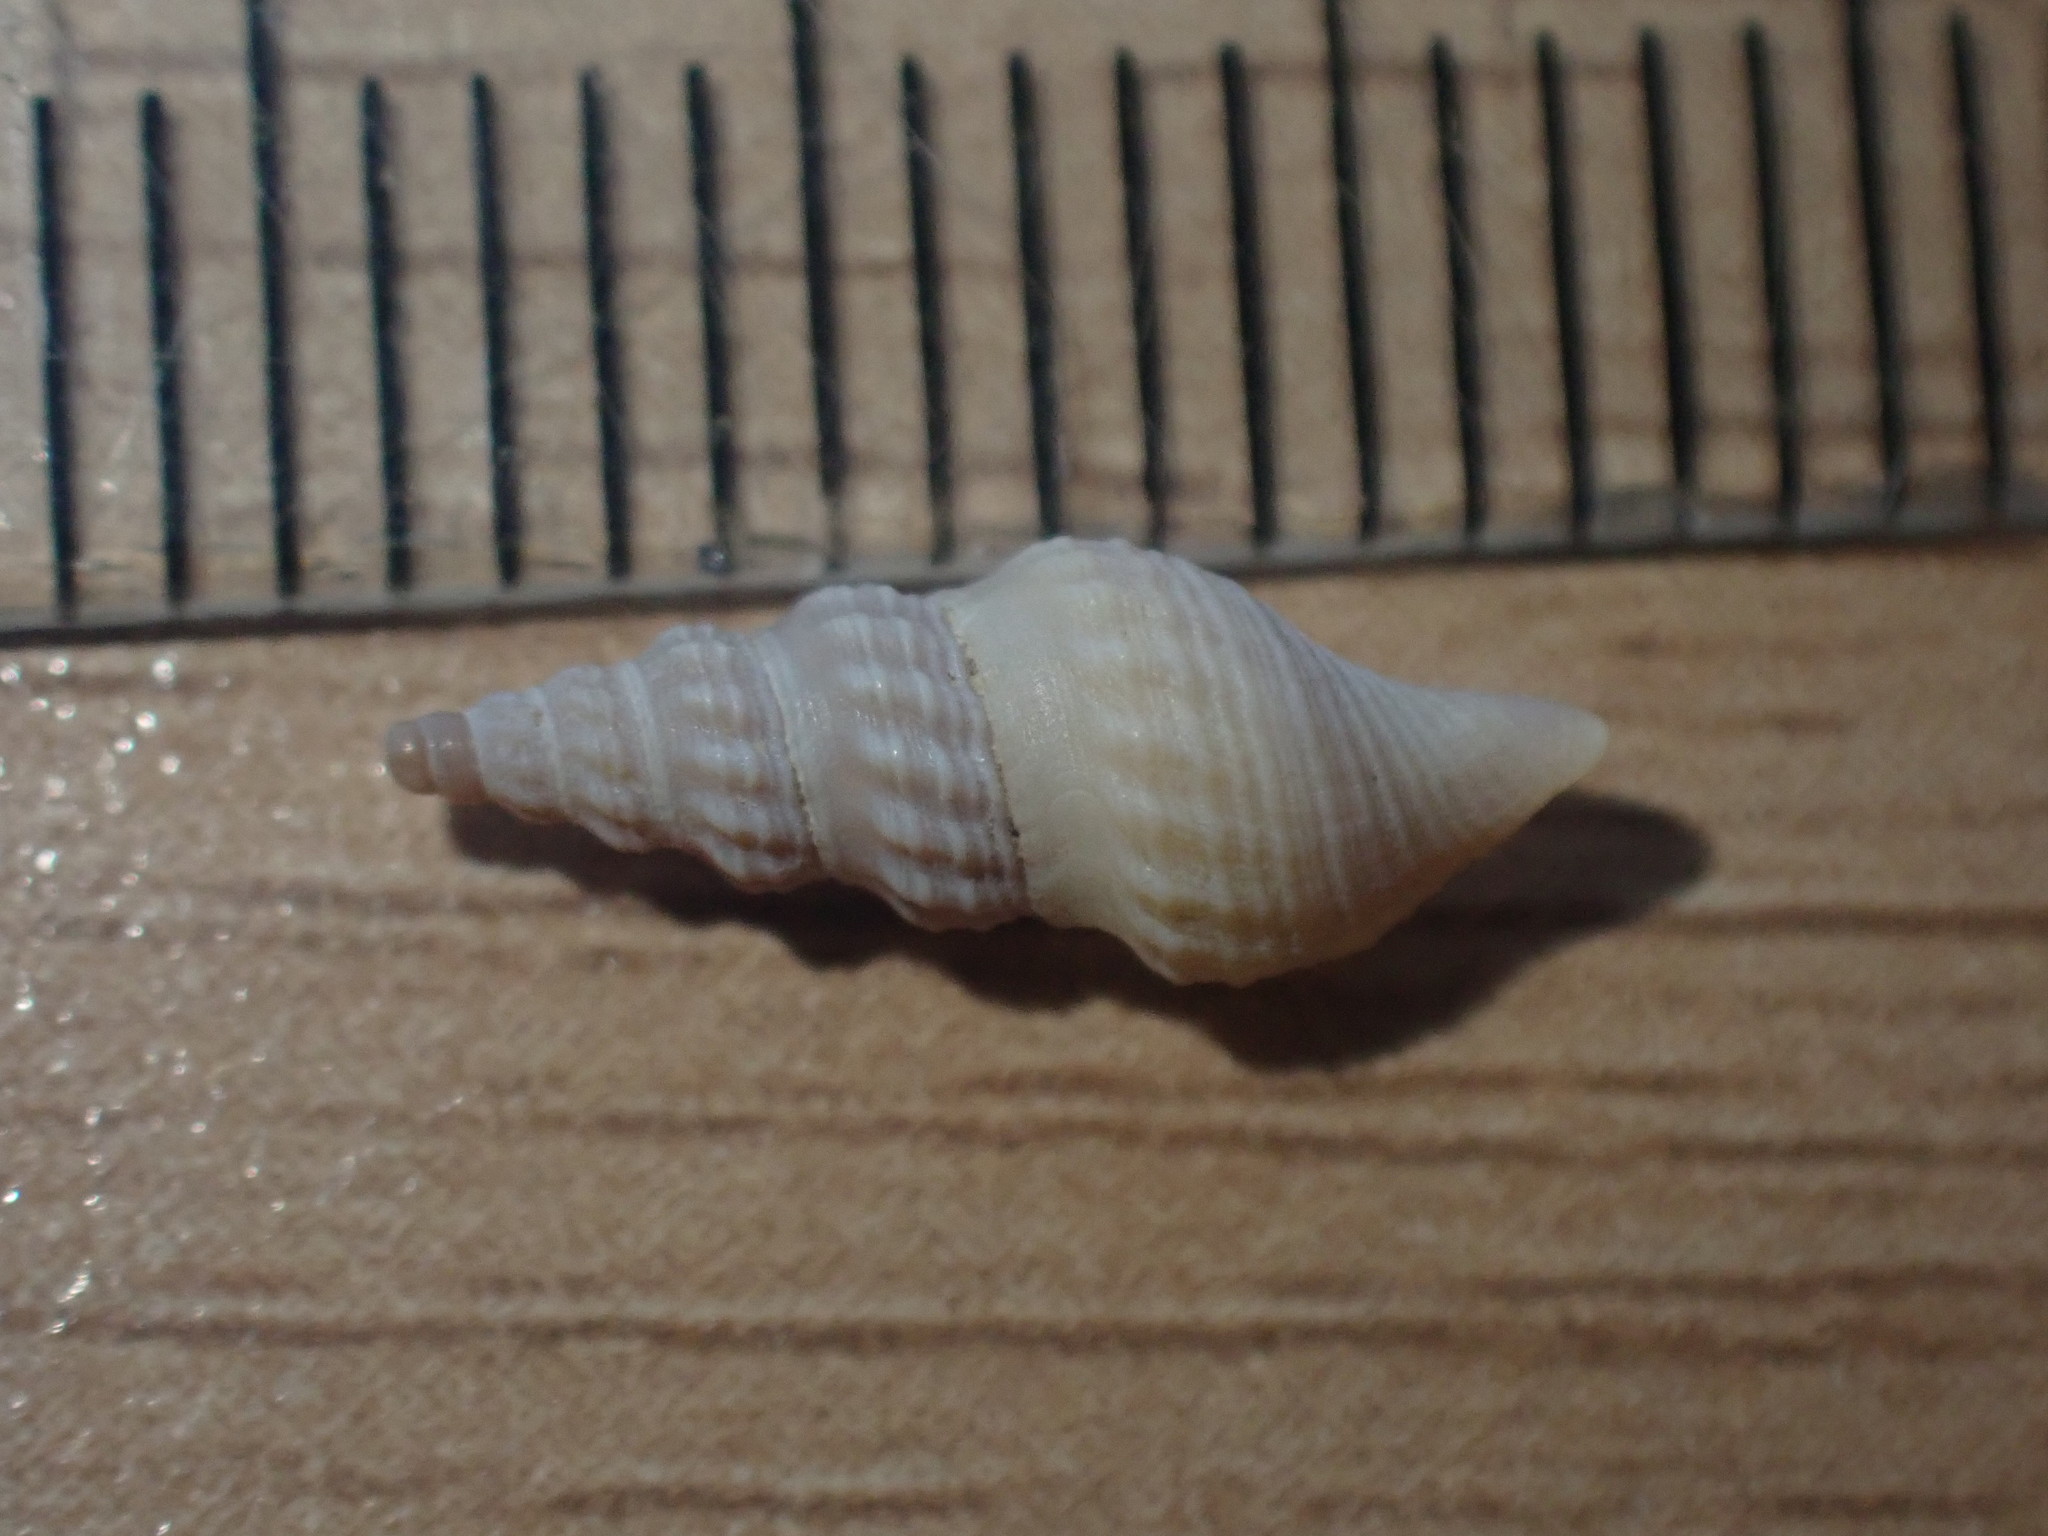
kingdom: Animalia
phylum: Mollusca
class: Gastropoda
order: Neogastropoda
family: Pseudomelatomidae
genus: Antimelatoma
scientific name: Antimelatoma buchanani
